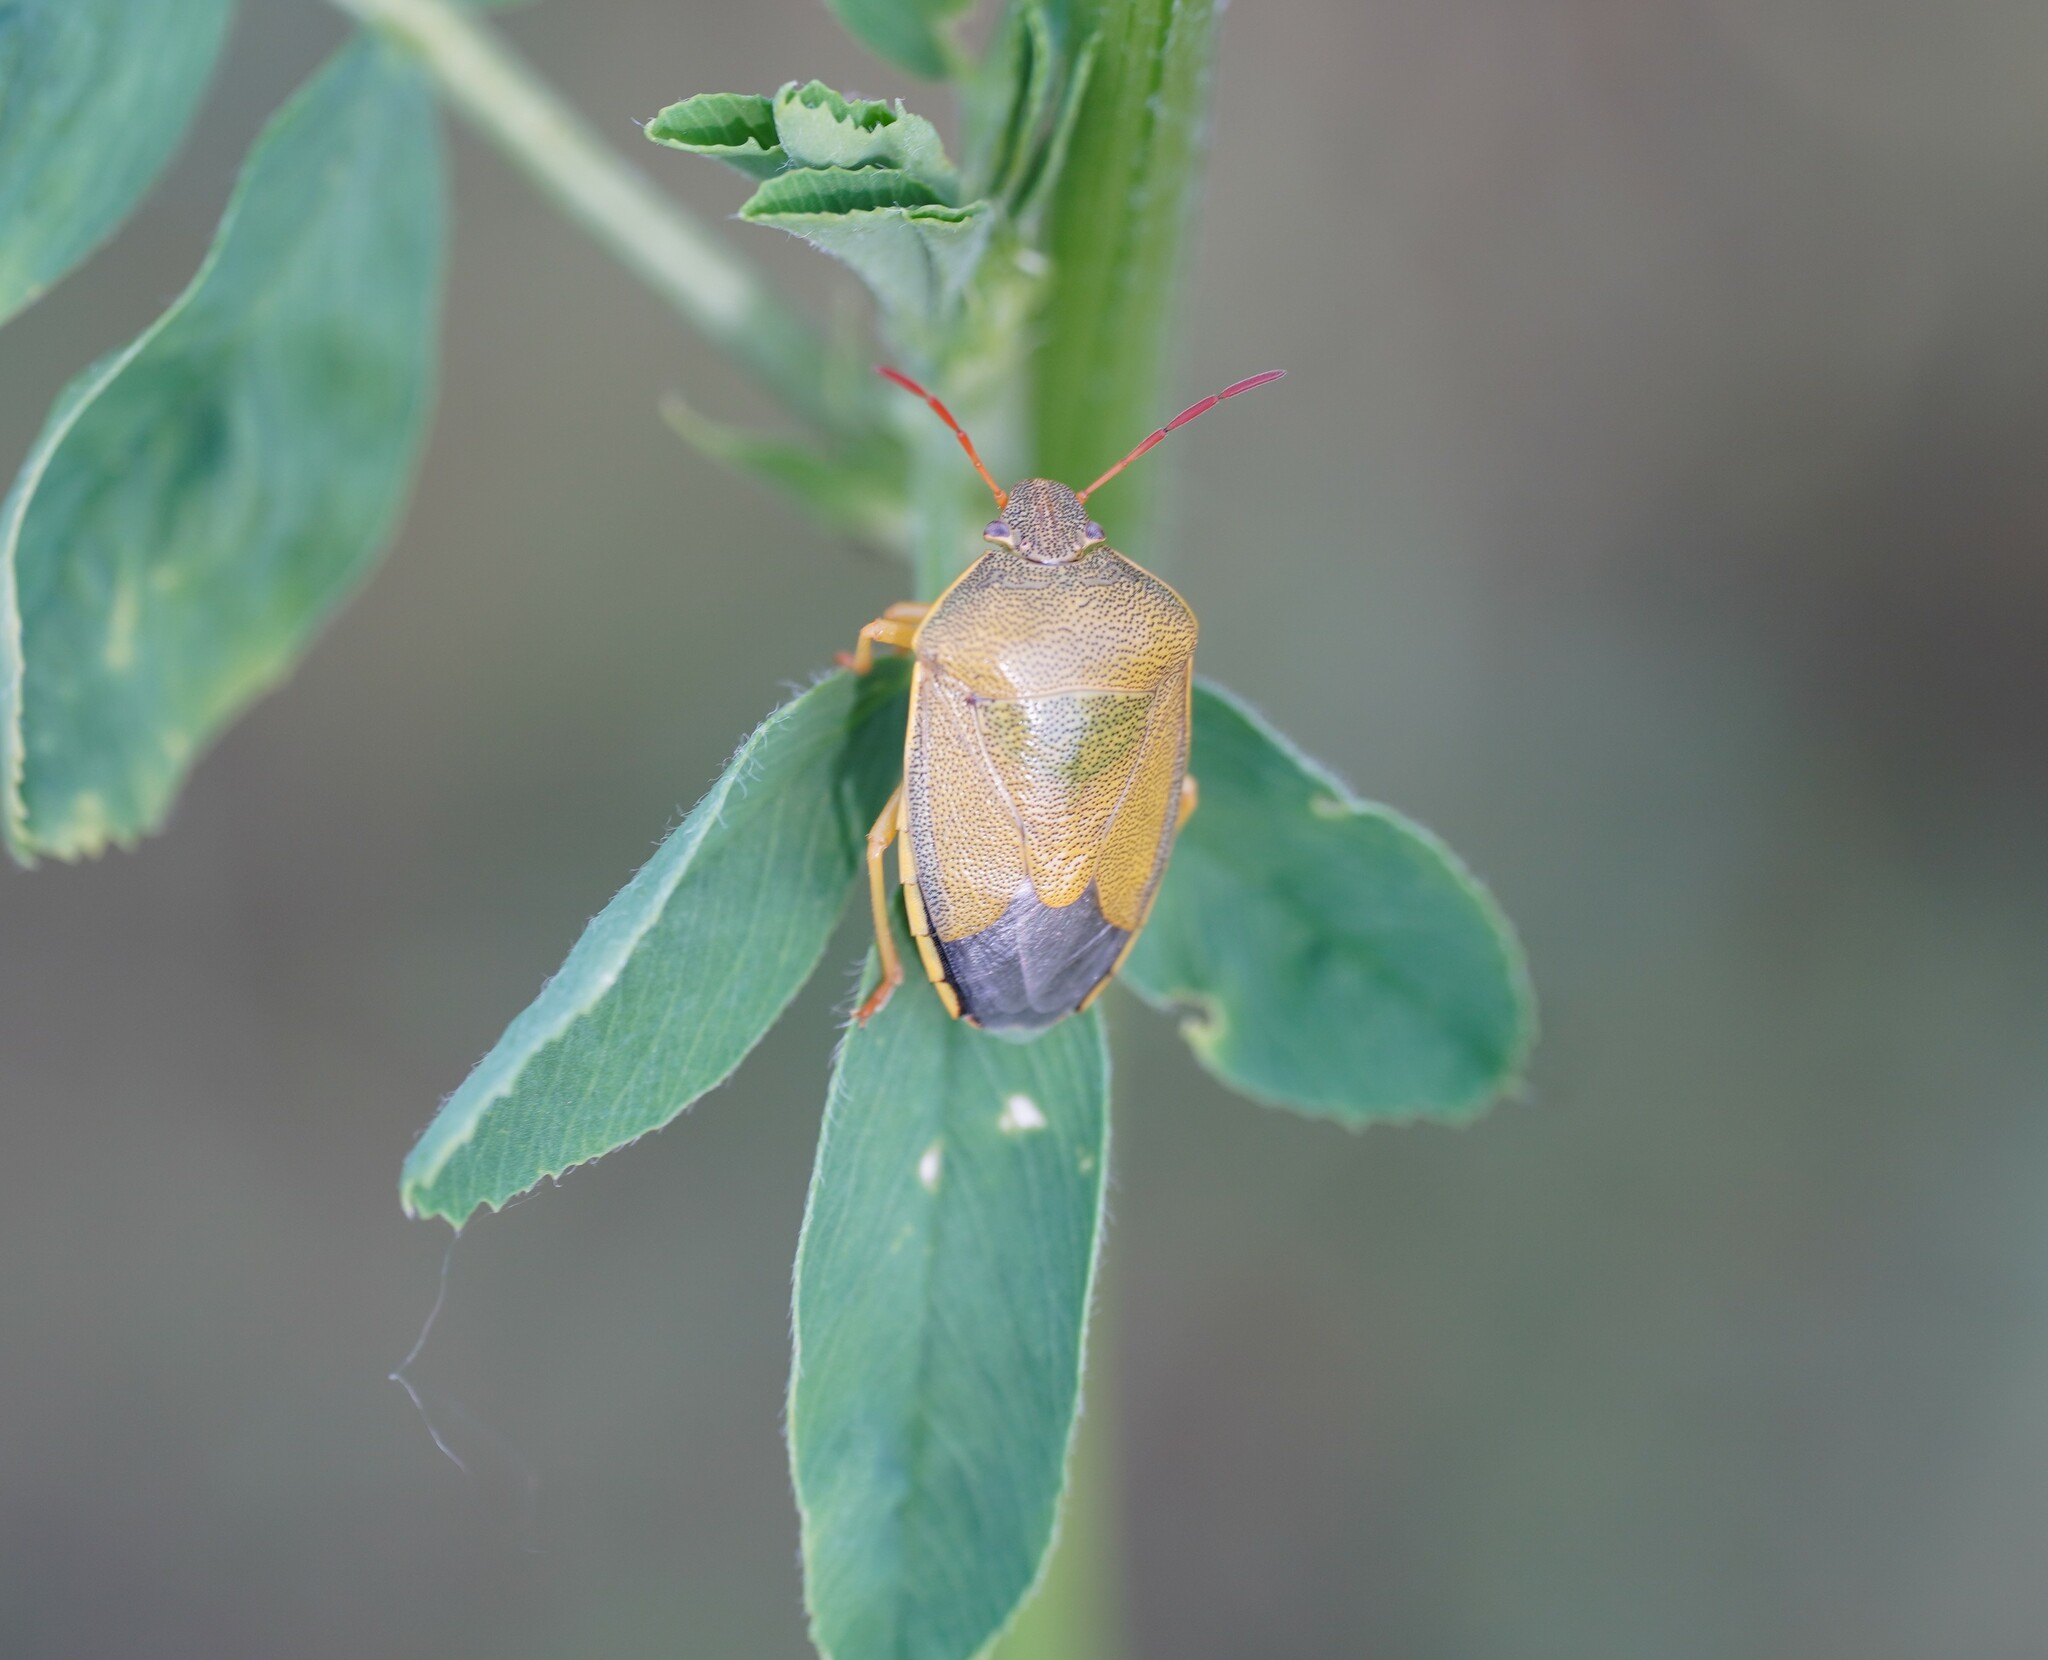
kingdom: Animalia
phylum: Arthropoda
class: Insecta
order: Hemiptera
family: Pentatomidae
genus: Piezodorus
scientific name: Piezodorus lituratus
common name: Stink bug
